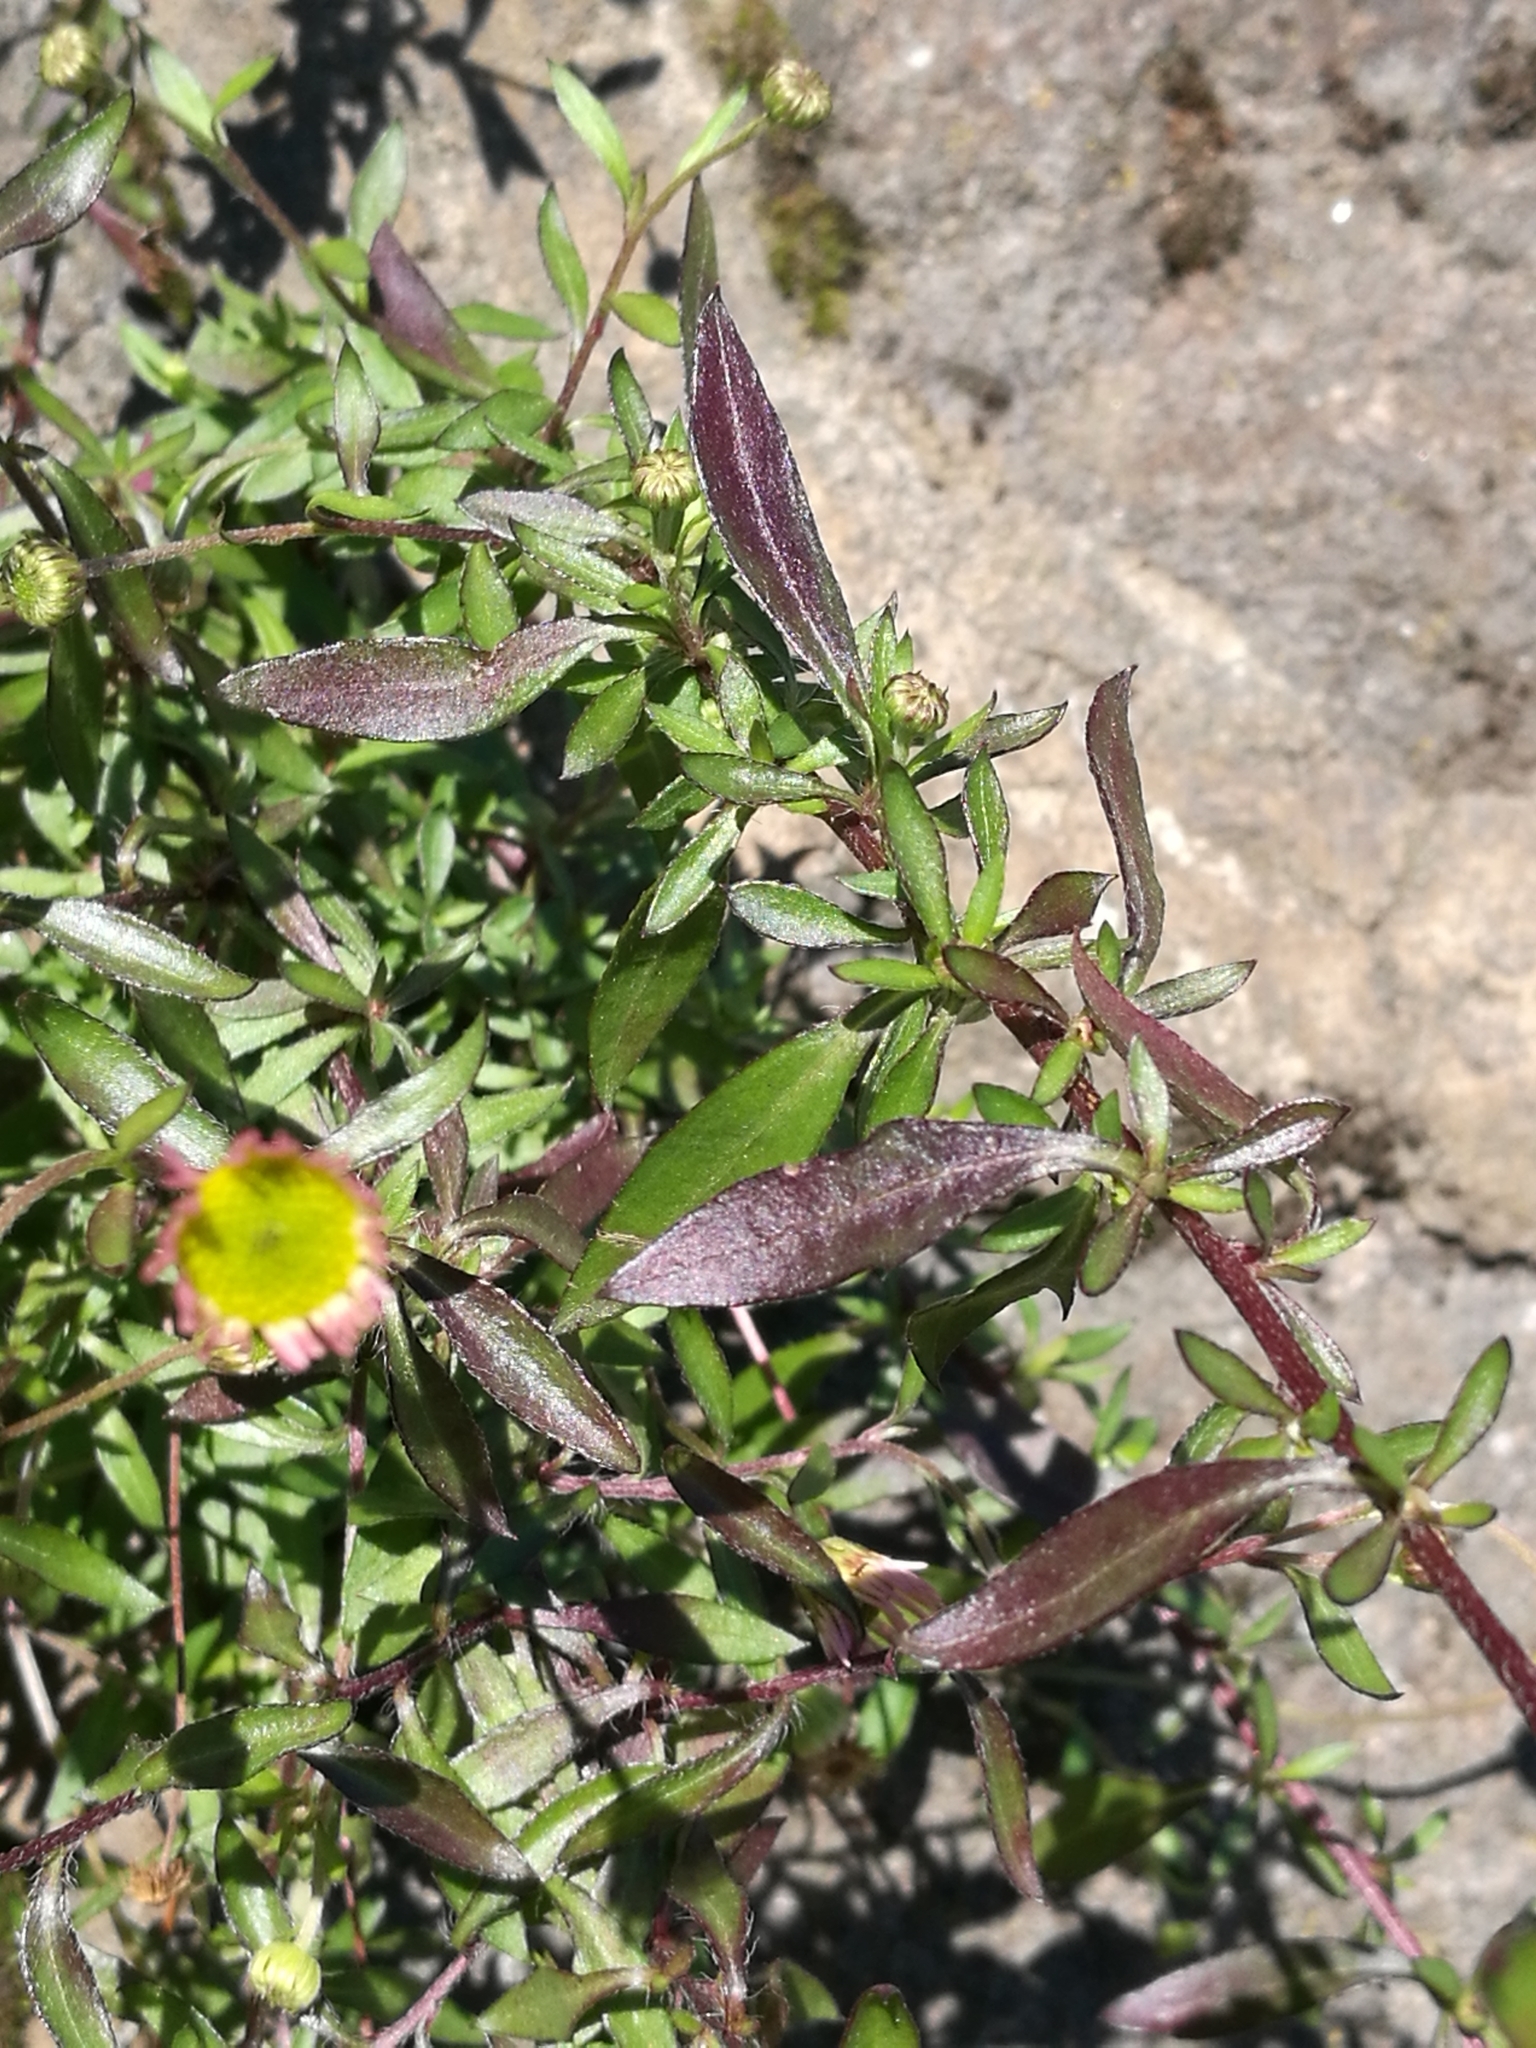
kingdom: Plantae
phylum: Tracheophyta
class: Magnoliopsida
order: Asterales
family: Asteraceae
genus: Erigeron
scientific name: Erigeron karvinskianus
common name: Mexican fleabane
